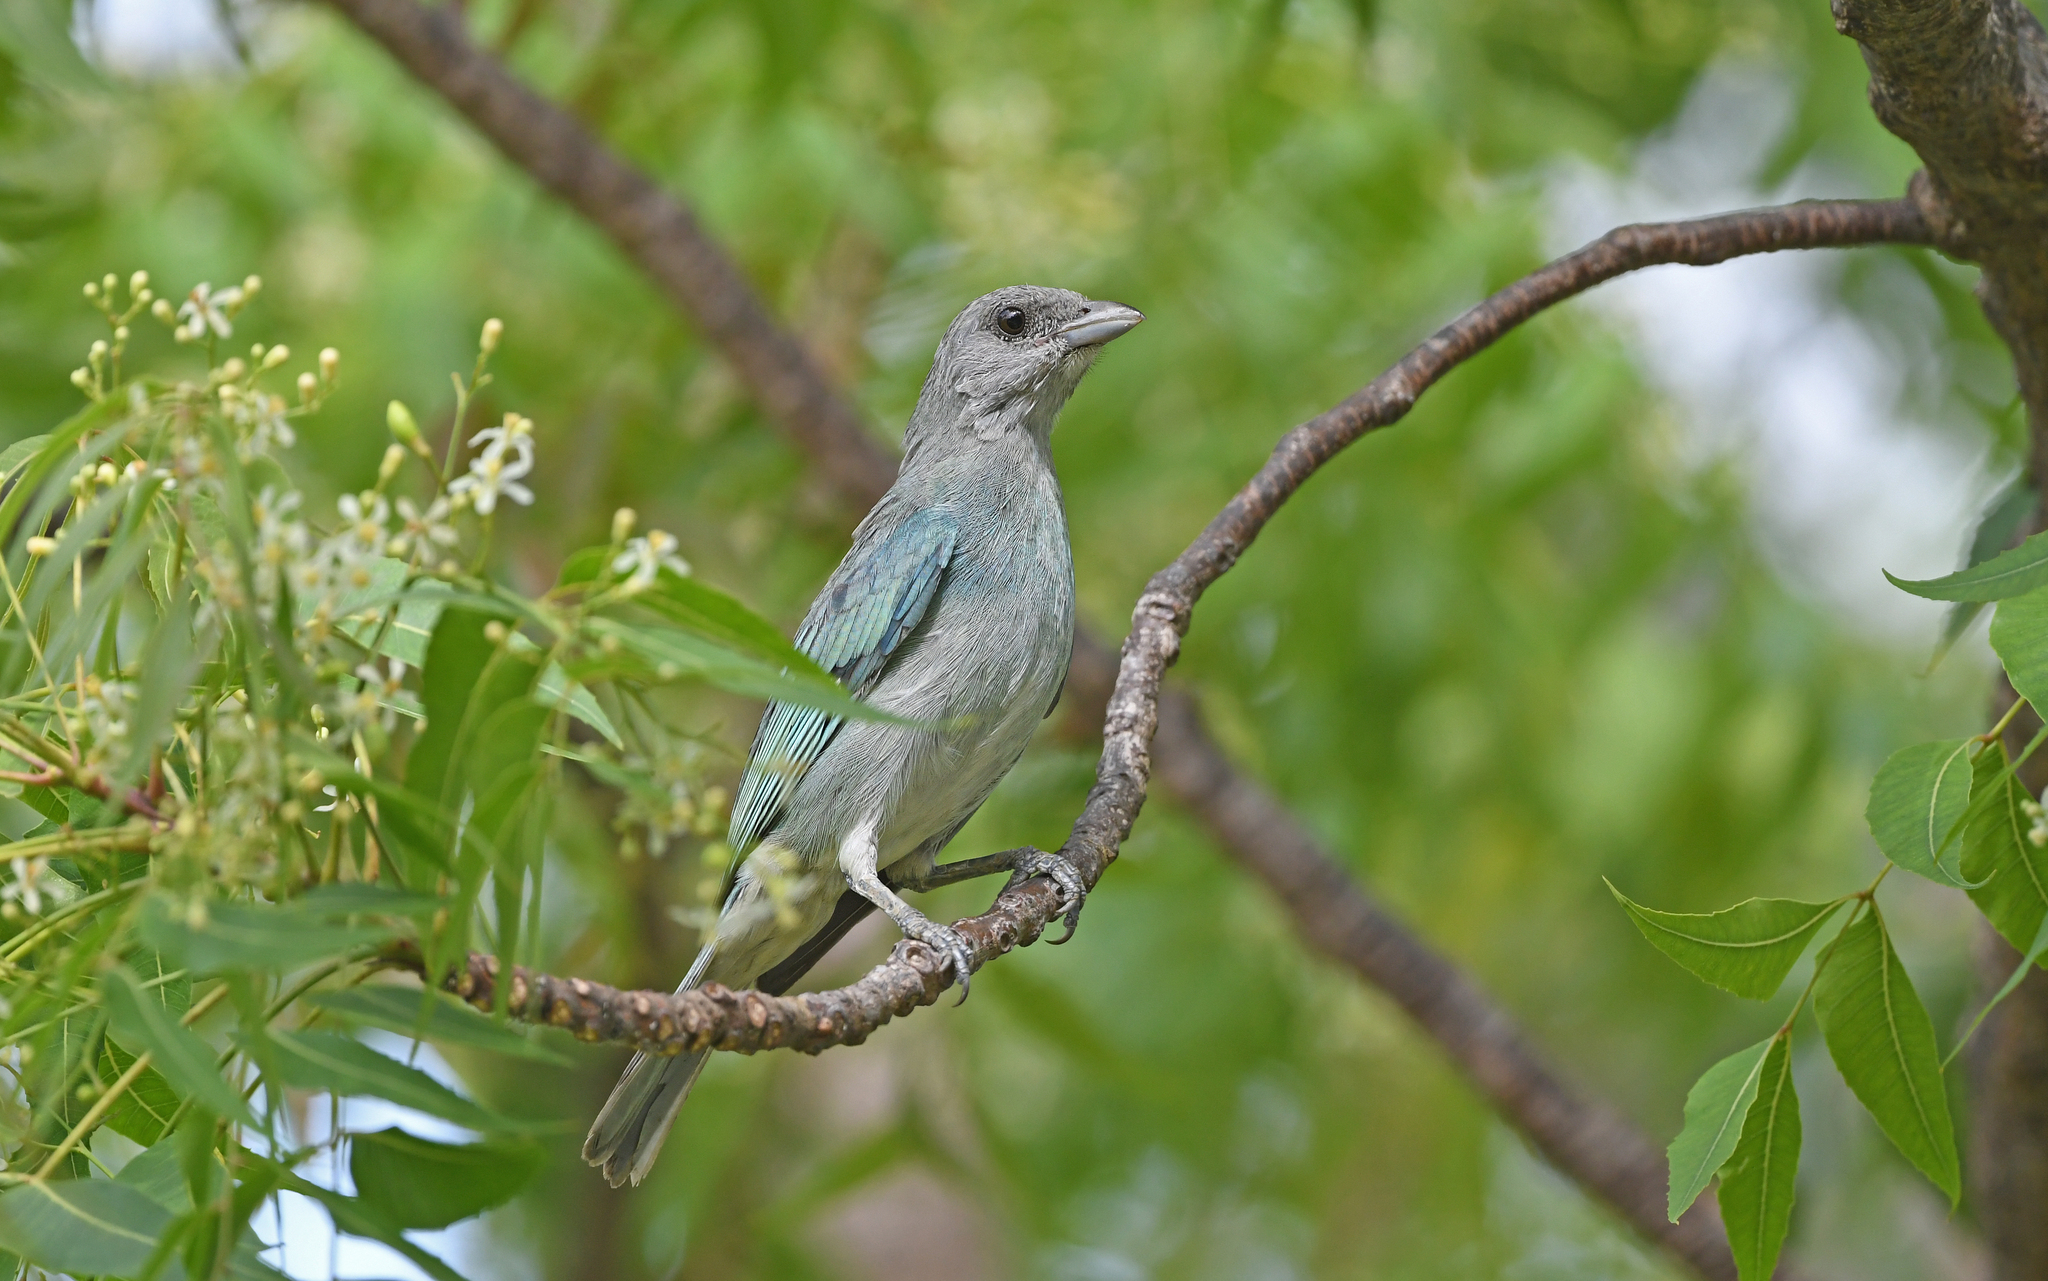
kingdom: Animalia
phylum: Chordata
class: Aves
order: Passeriformes
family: Thraupidae
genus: Thraupis
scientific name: Thraupis glaucocolpa
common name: Glaucous tanager
